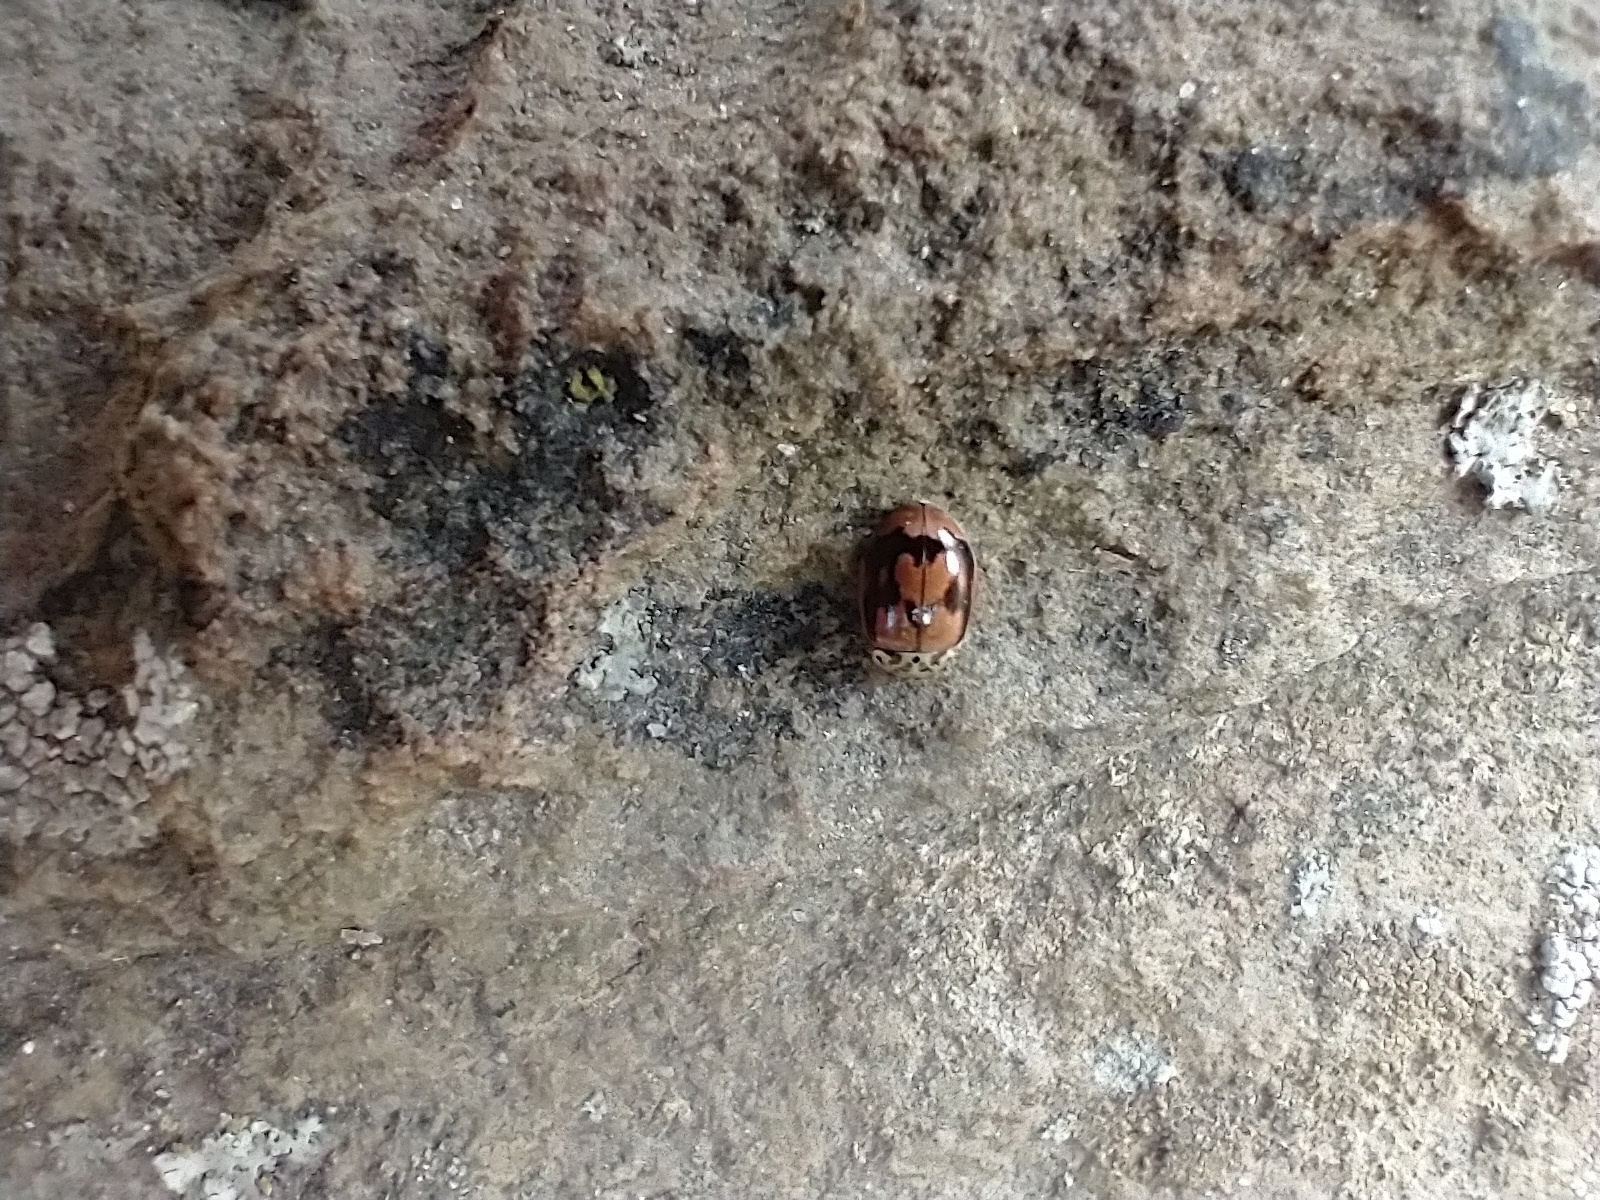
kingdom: Animalia
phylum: Arthropoda
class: Insecta
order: Coleoptera
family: Coccinellidae
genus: Mulsantina
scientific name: Mulsantina picta
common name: Painted ladybird
